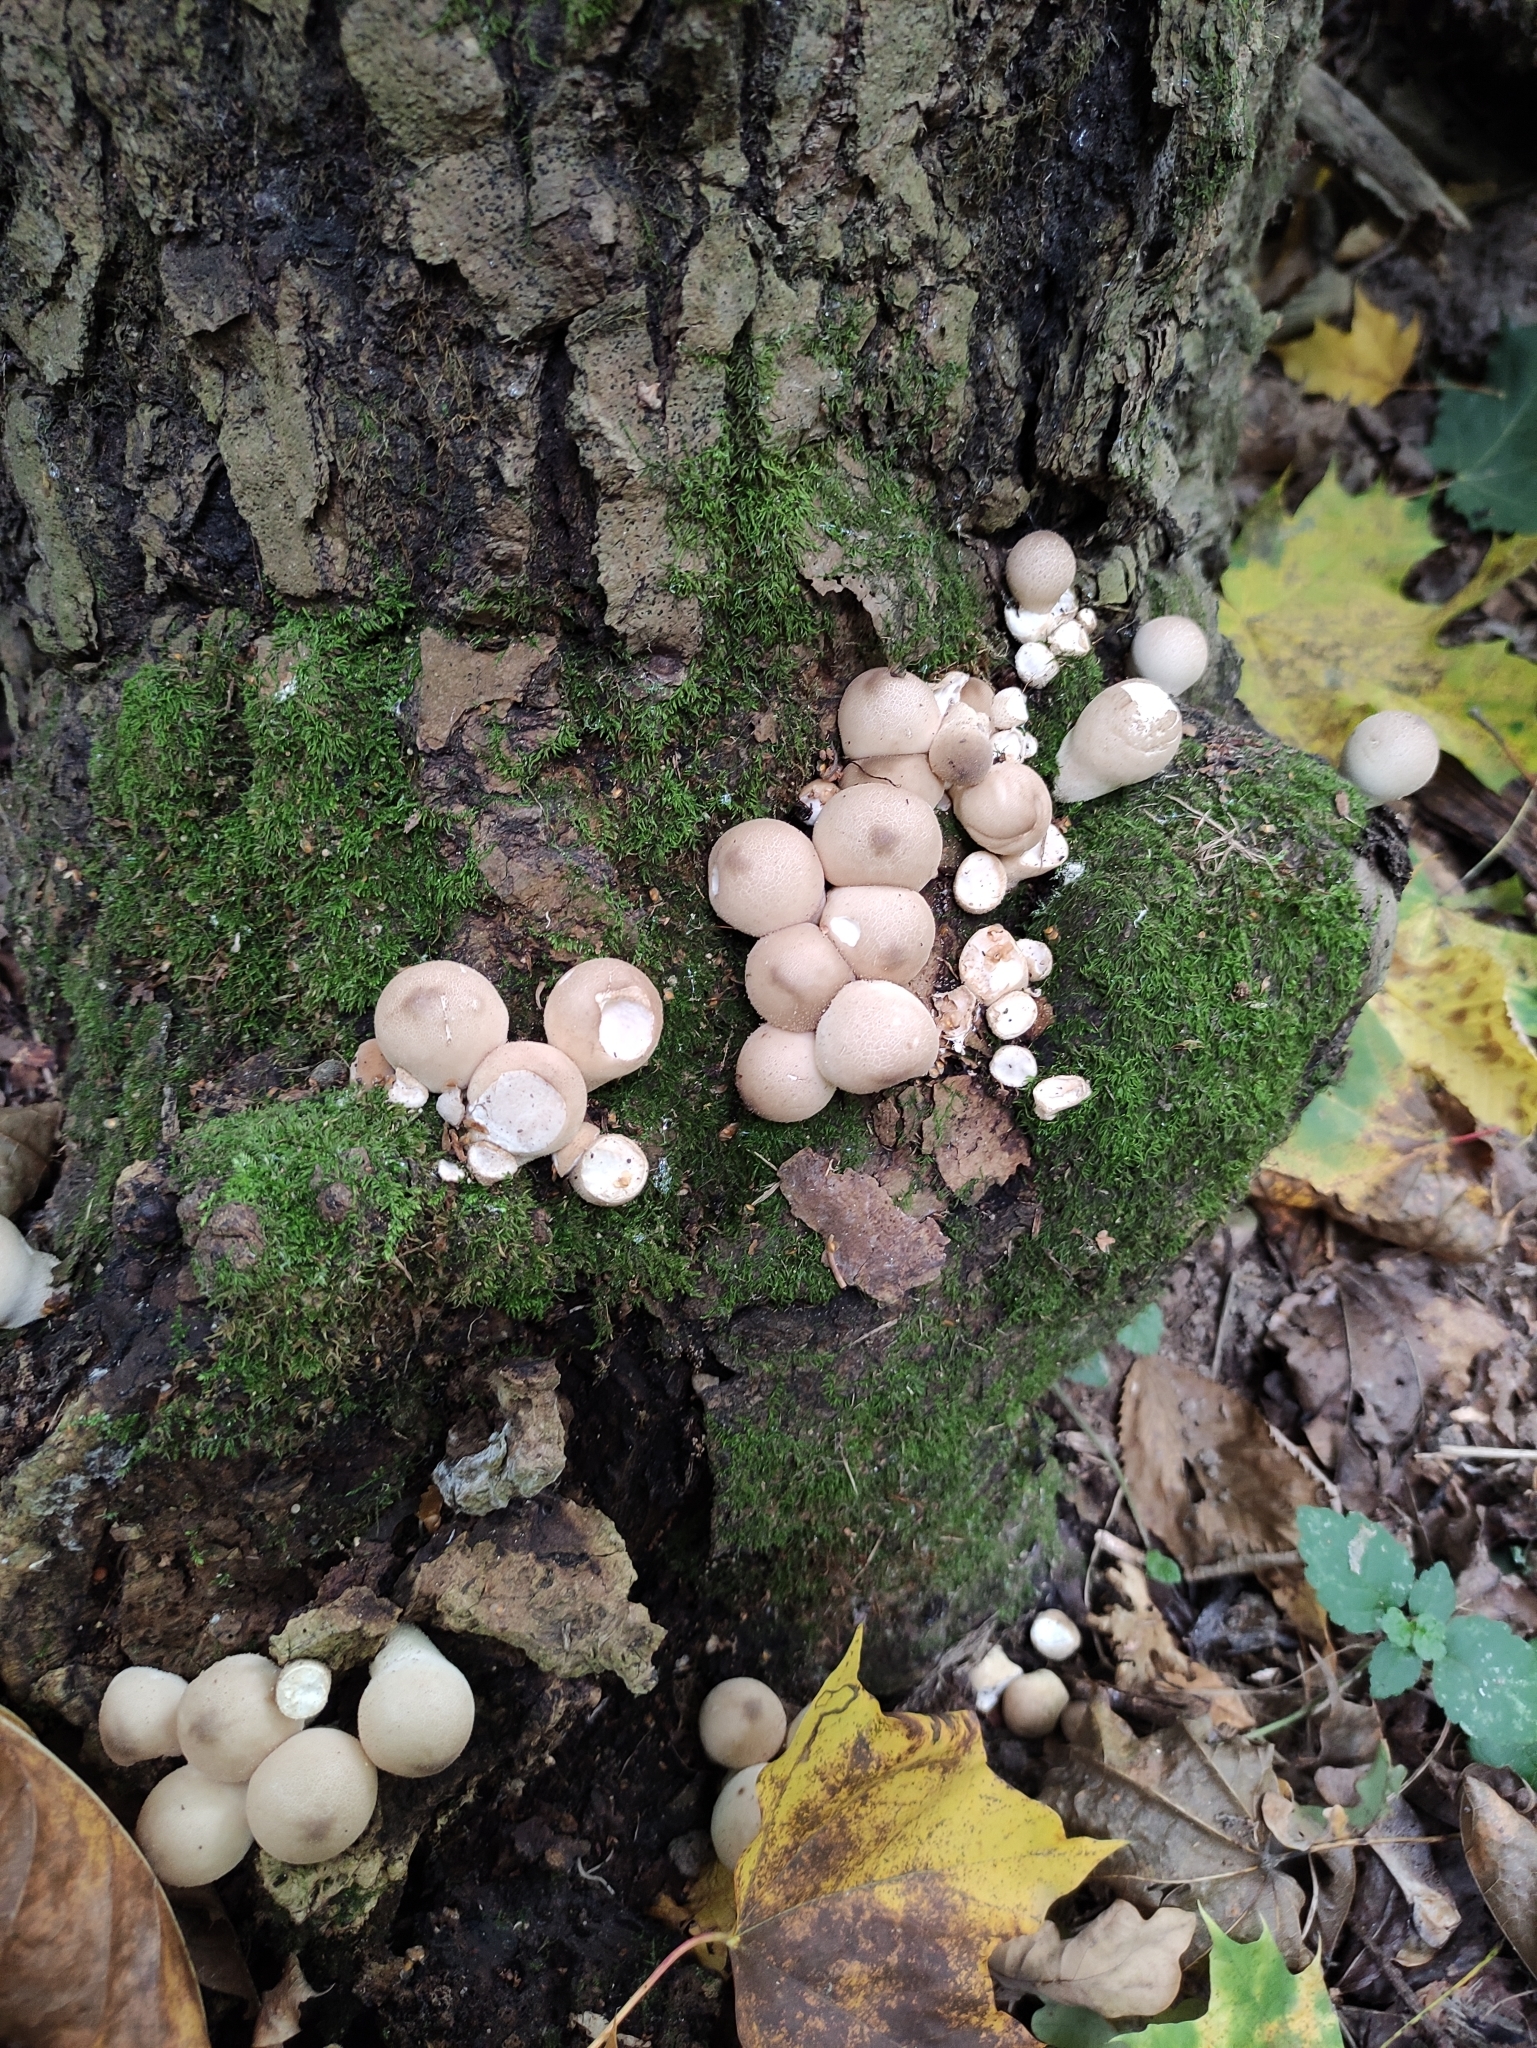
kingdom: Fungi
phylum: Basidiomycota
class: Agaricomycetes
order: Agaricales
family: Lycoperdaceae
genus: Apioperdon
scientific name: Apioperdon pyriforme
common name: Pear-shaped puffball
